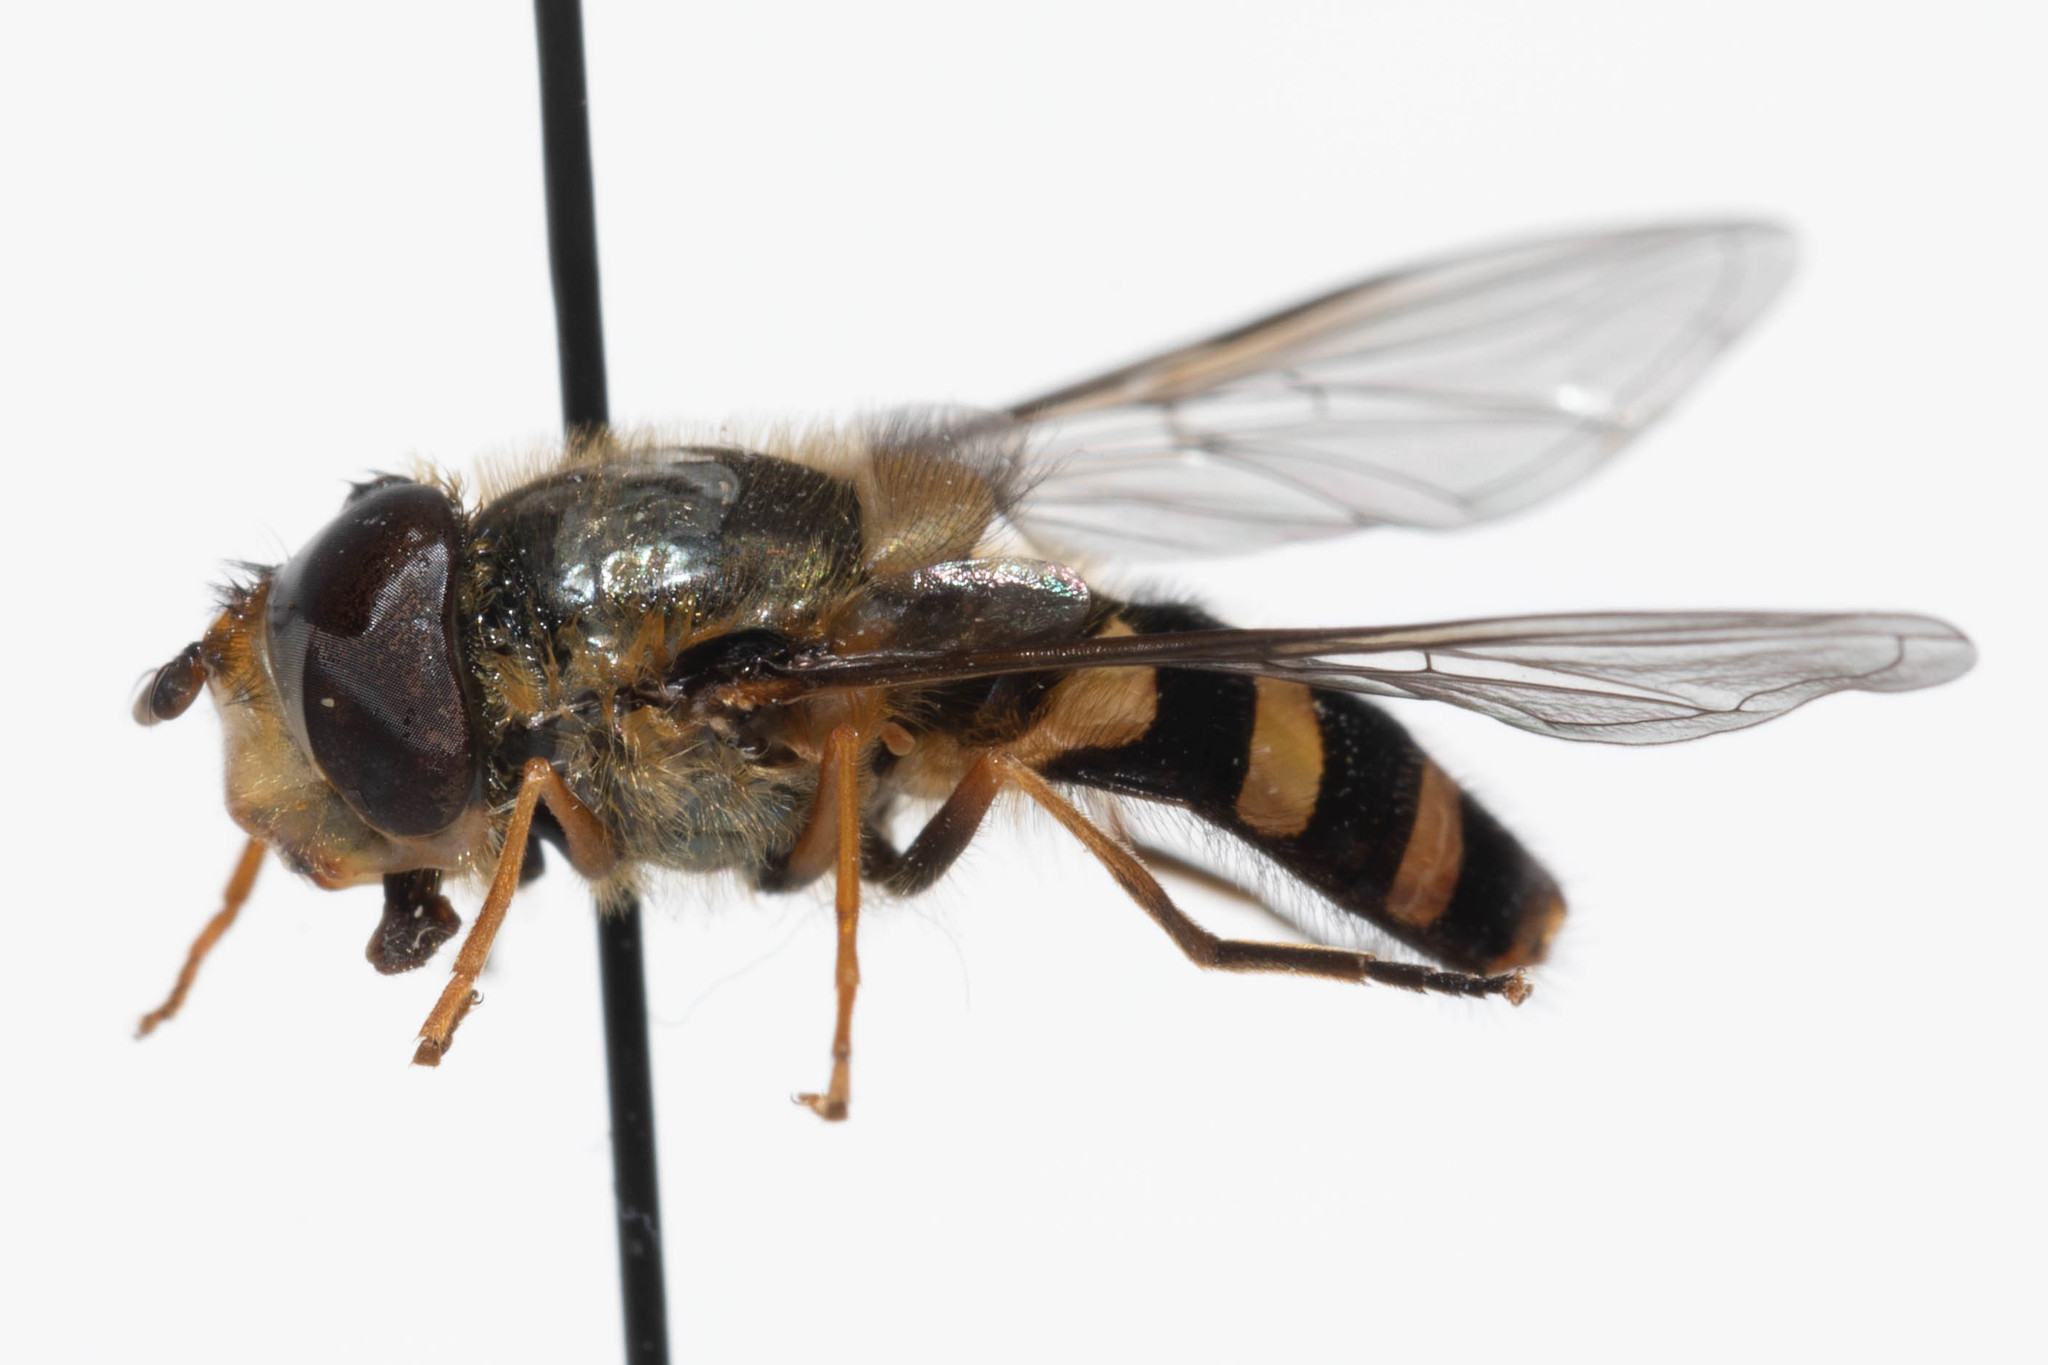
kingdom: Animalia
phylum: Arthropoda
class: Insecta
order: Diptera
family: Syrphidae
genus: Syrphus
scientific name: Syrphus opinator
